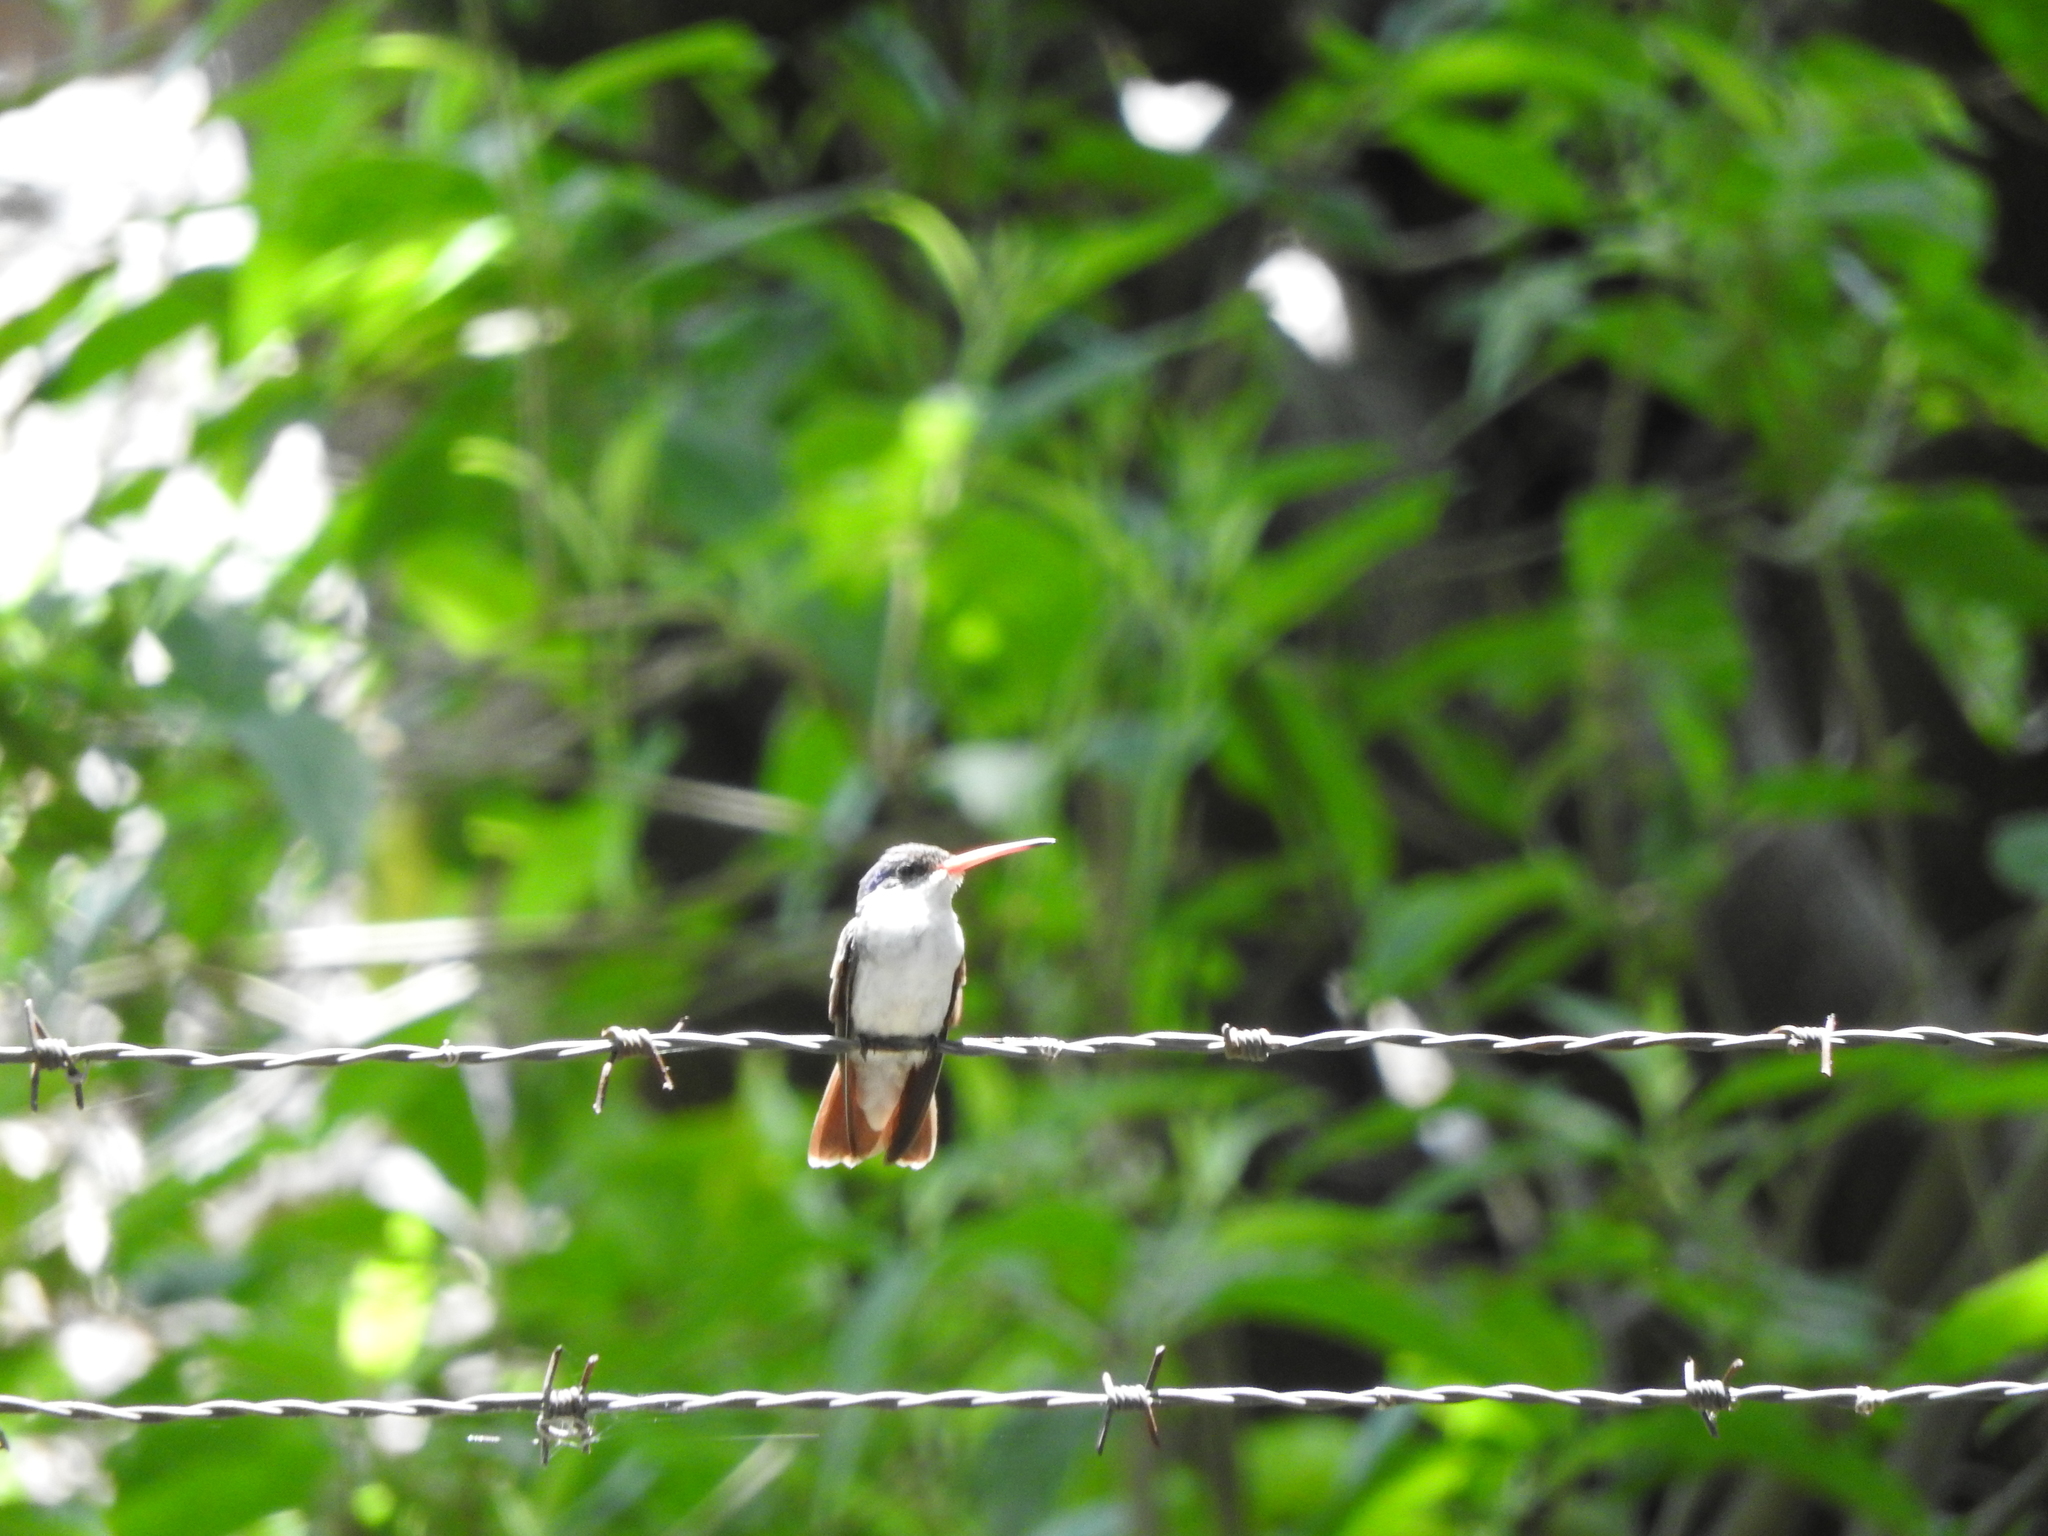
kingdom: Animalia
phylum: Chordata
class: Aves
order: Apodiformes
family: Trochilidae
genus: Leucolia
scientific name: Leucolia violiceps
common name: Violet-crowned hummingbird
